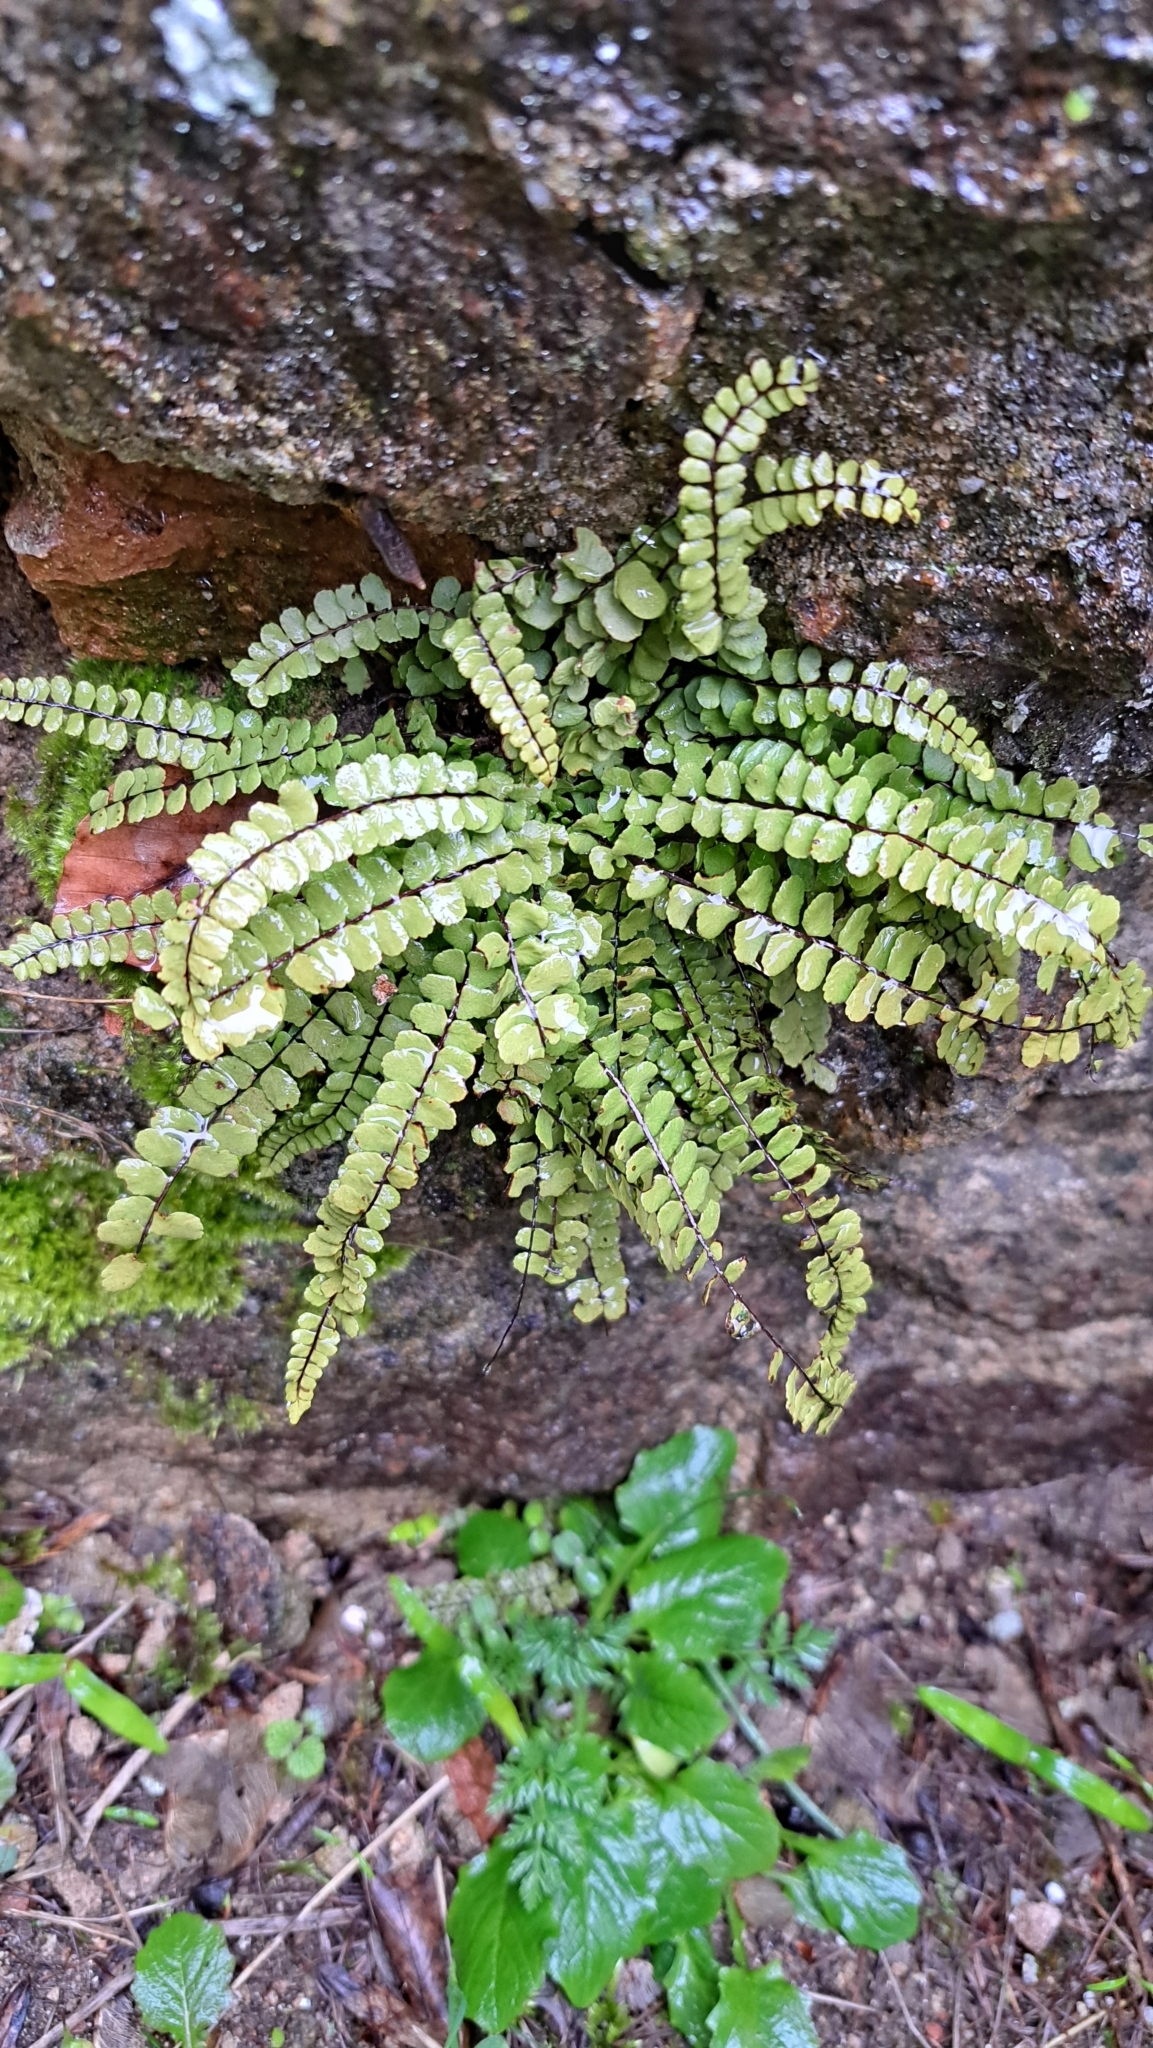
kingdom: Plantae
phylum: Tracheophyta
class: Polypodiopsida
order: Polypodiales
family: Aspleniaceae
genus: Asplenium
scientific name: Asplenium trichomanes
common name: Maidenhair spleenwort
